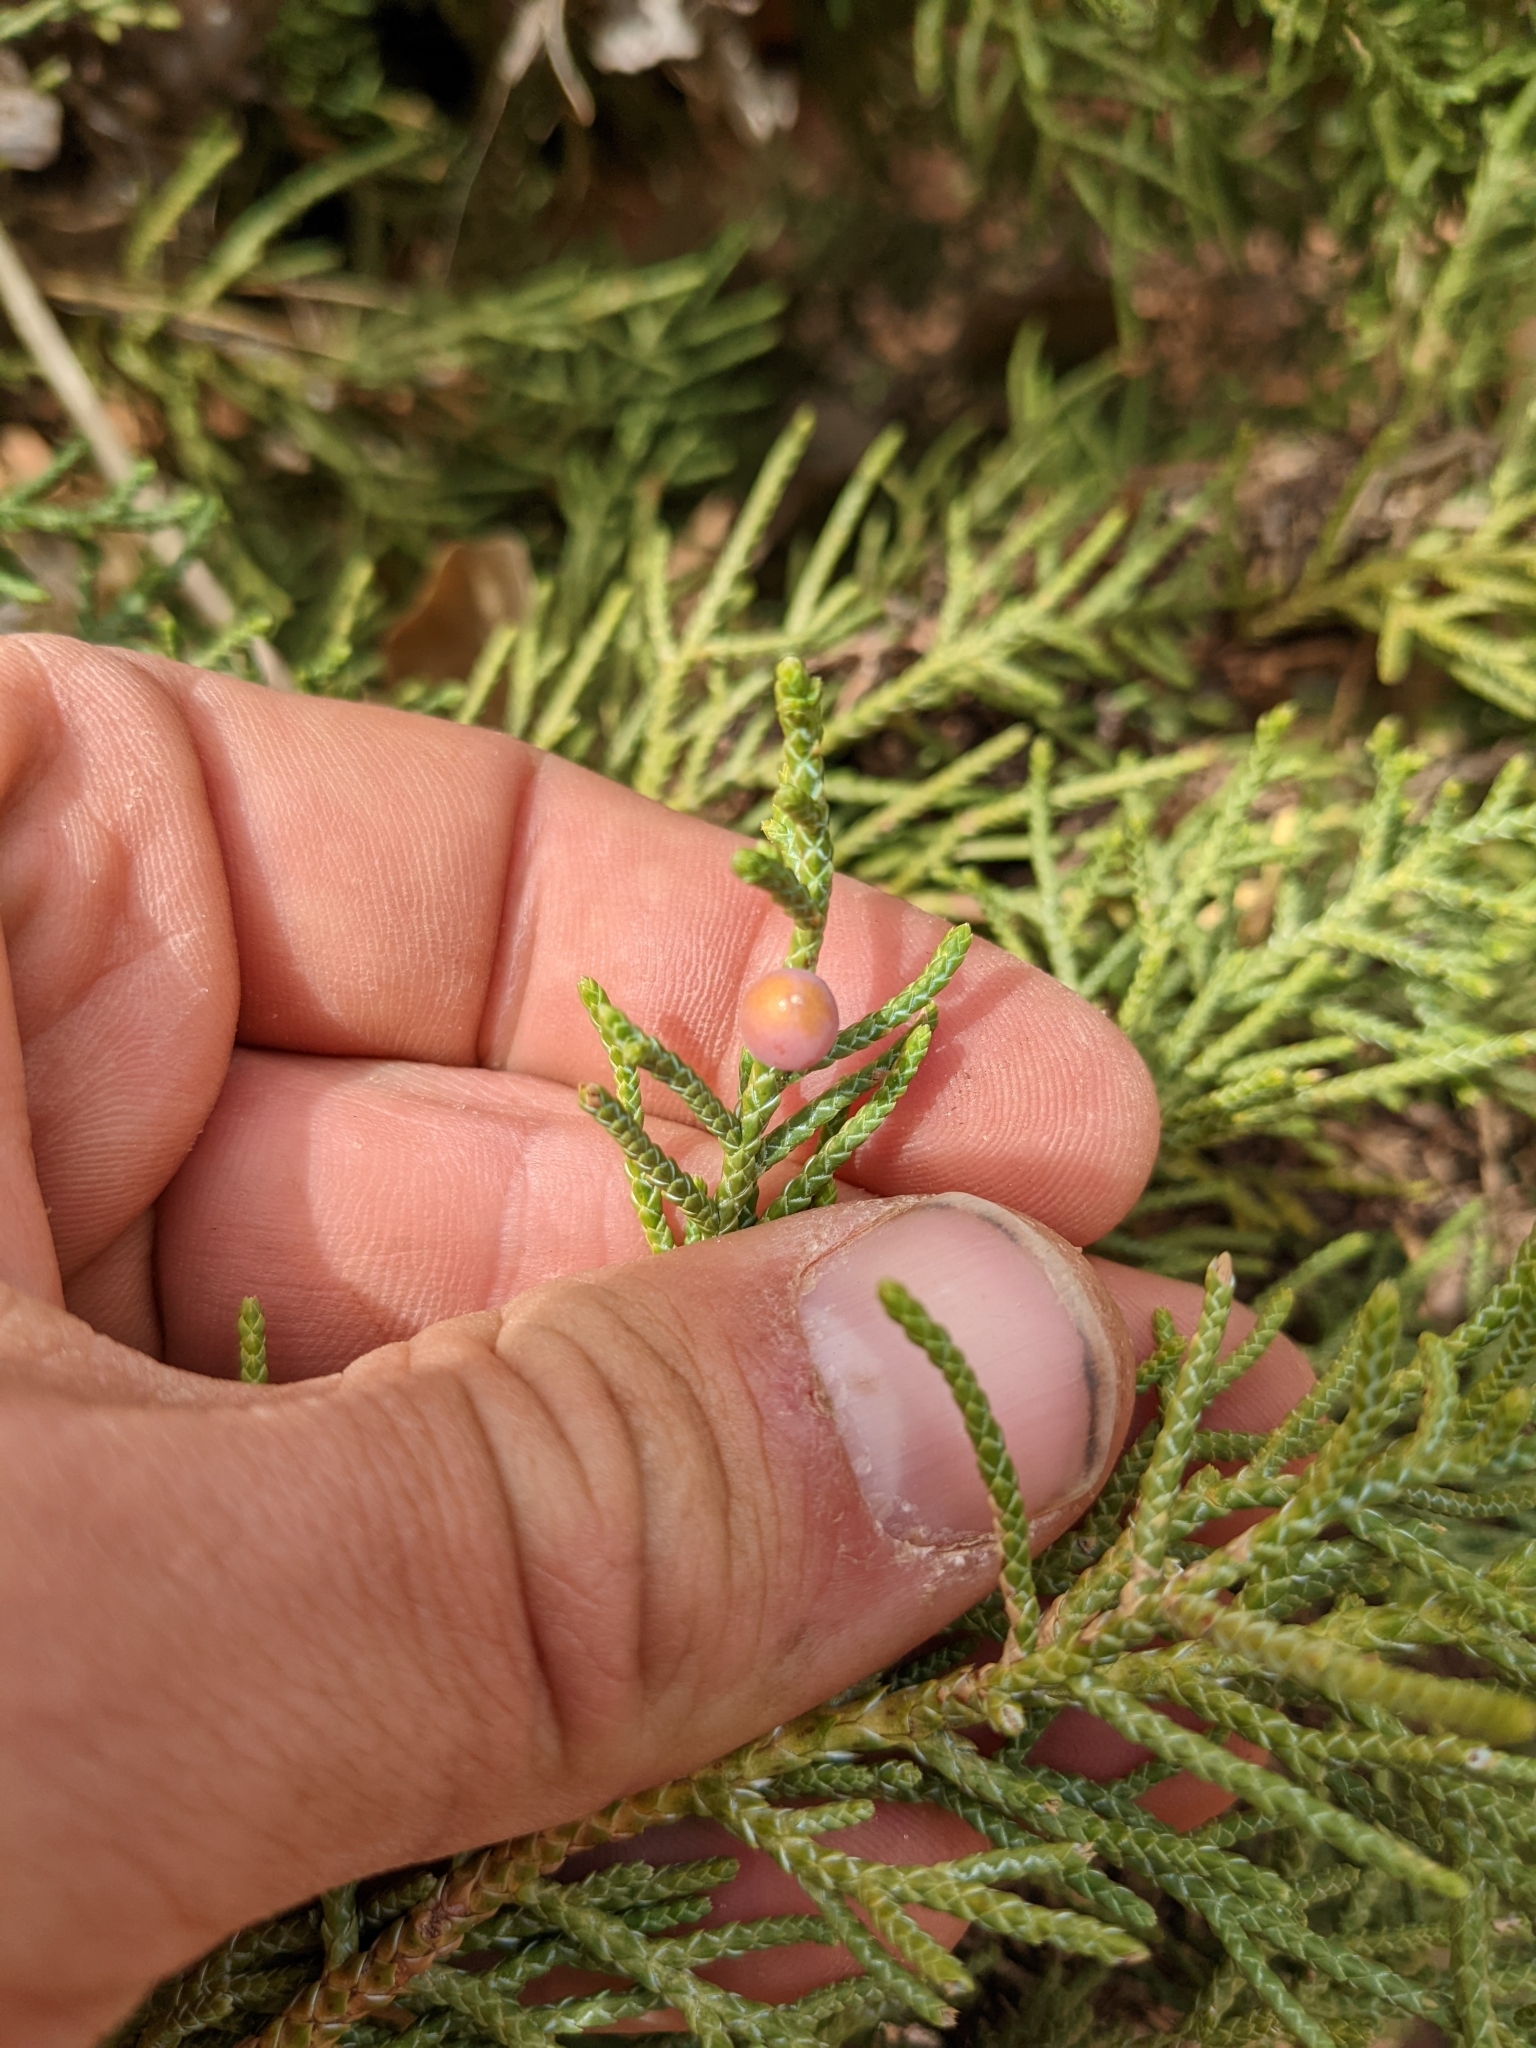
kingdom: Plantae
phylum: Tracheophyta
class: Pinopsida
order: Pinales
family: Cupressaceae
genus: Juniperus
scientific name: Juniperus osteosperma
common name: Utah juniper
